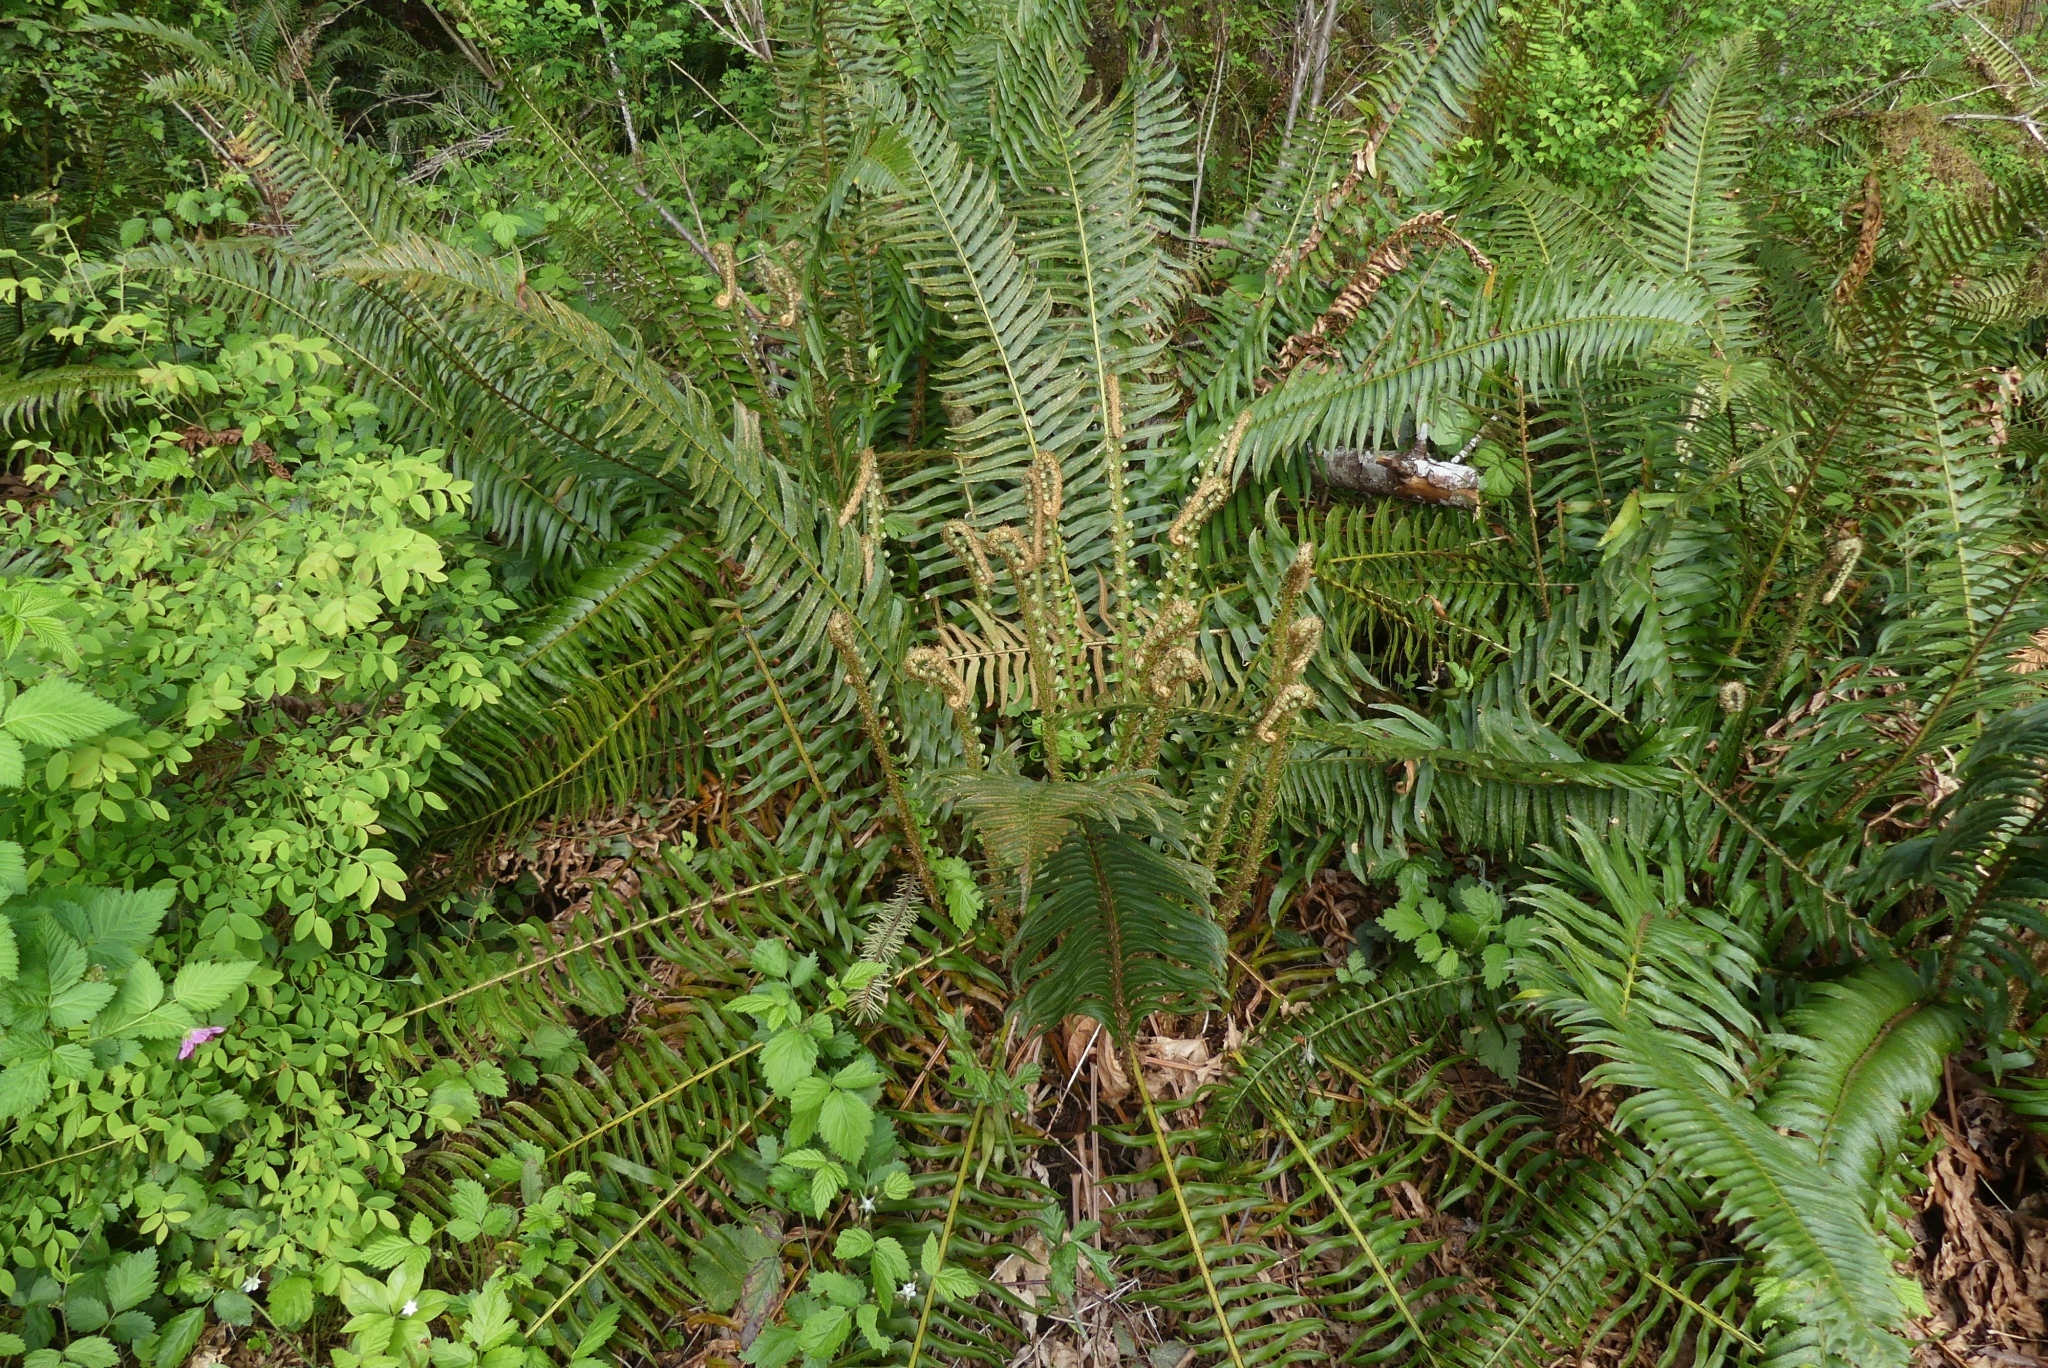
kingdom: Plantae
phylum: Tracheophyta
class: Polypodiopsida
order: Polypodiales
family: Dryopteridaceae
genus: Polystichum
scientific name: Polystichum munitum
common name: Western sword-fern
